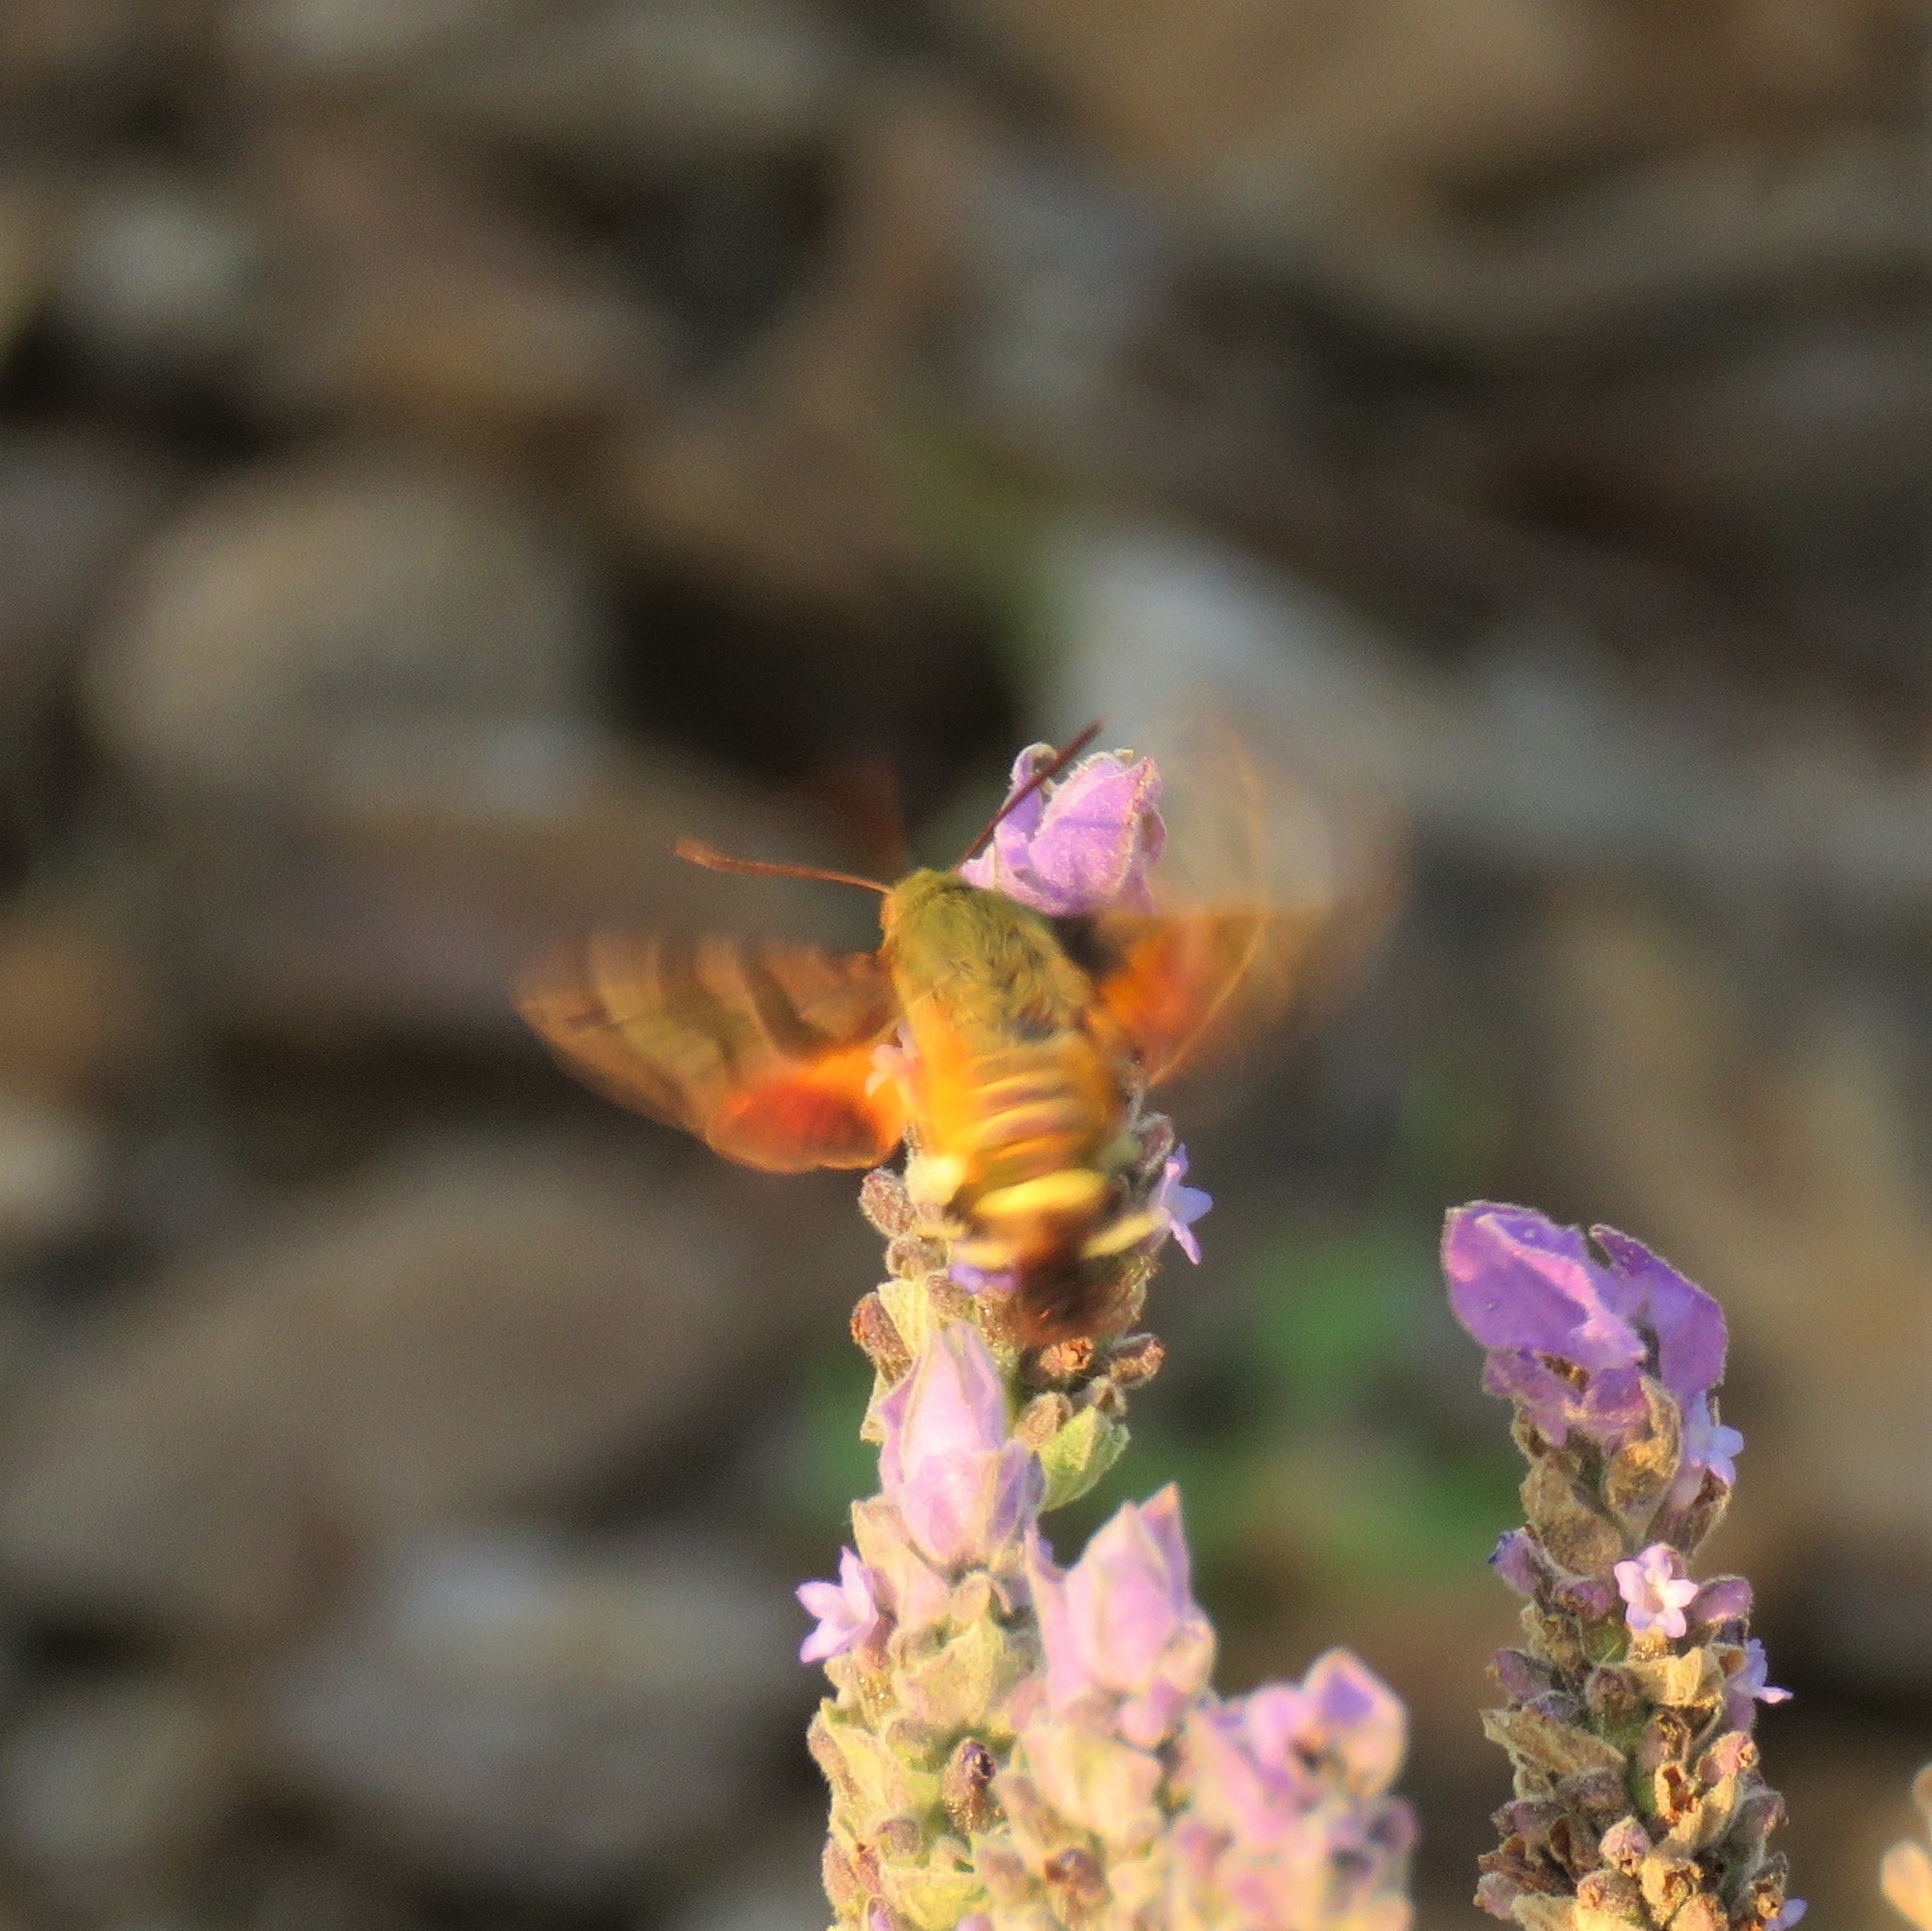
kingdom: Animalia
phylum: Arthropoda
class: Insecta
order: Lepidoptera
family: Sphingidae
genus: Macroglossum
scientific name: Macroglossum trochilus
